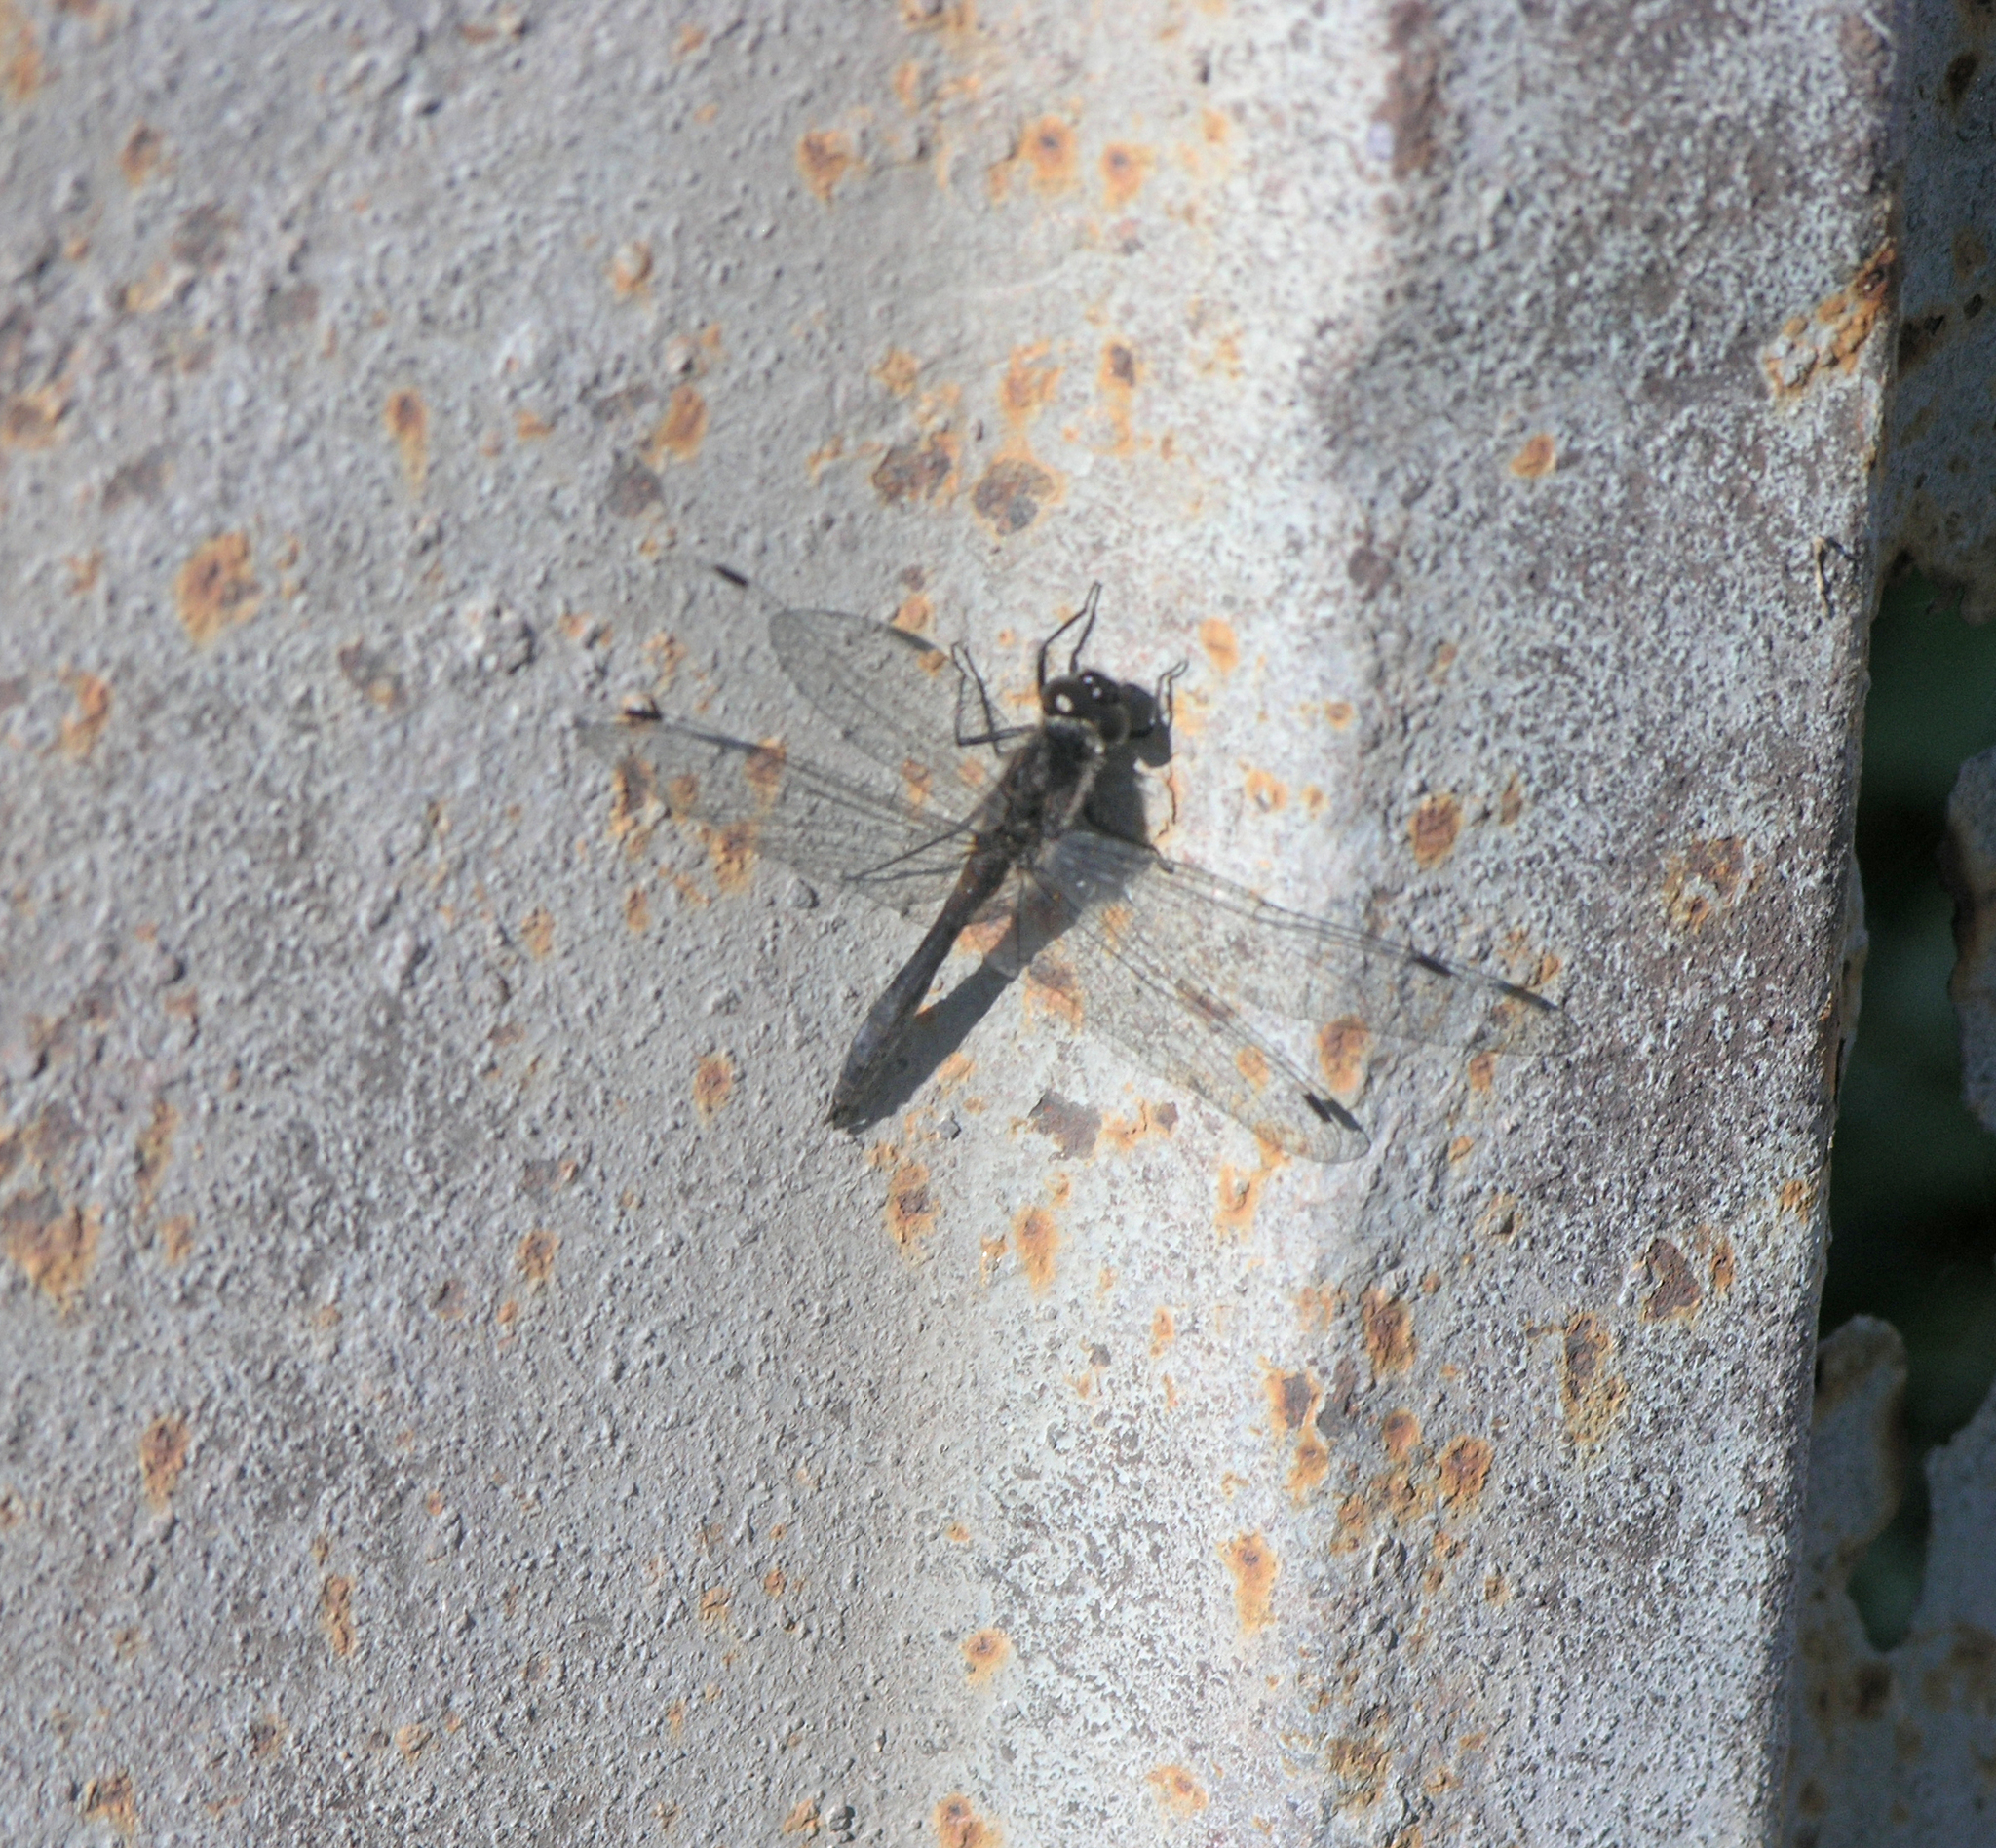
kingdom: Animalia
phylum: Arthropoda
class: Insecta
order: Odonata
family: Libellulidae
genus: Sympetrum
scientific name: Sympetrum danae
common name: Black darter
